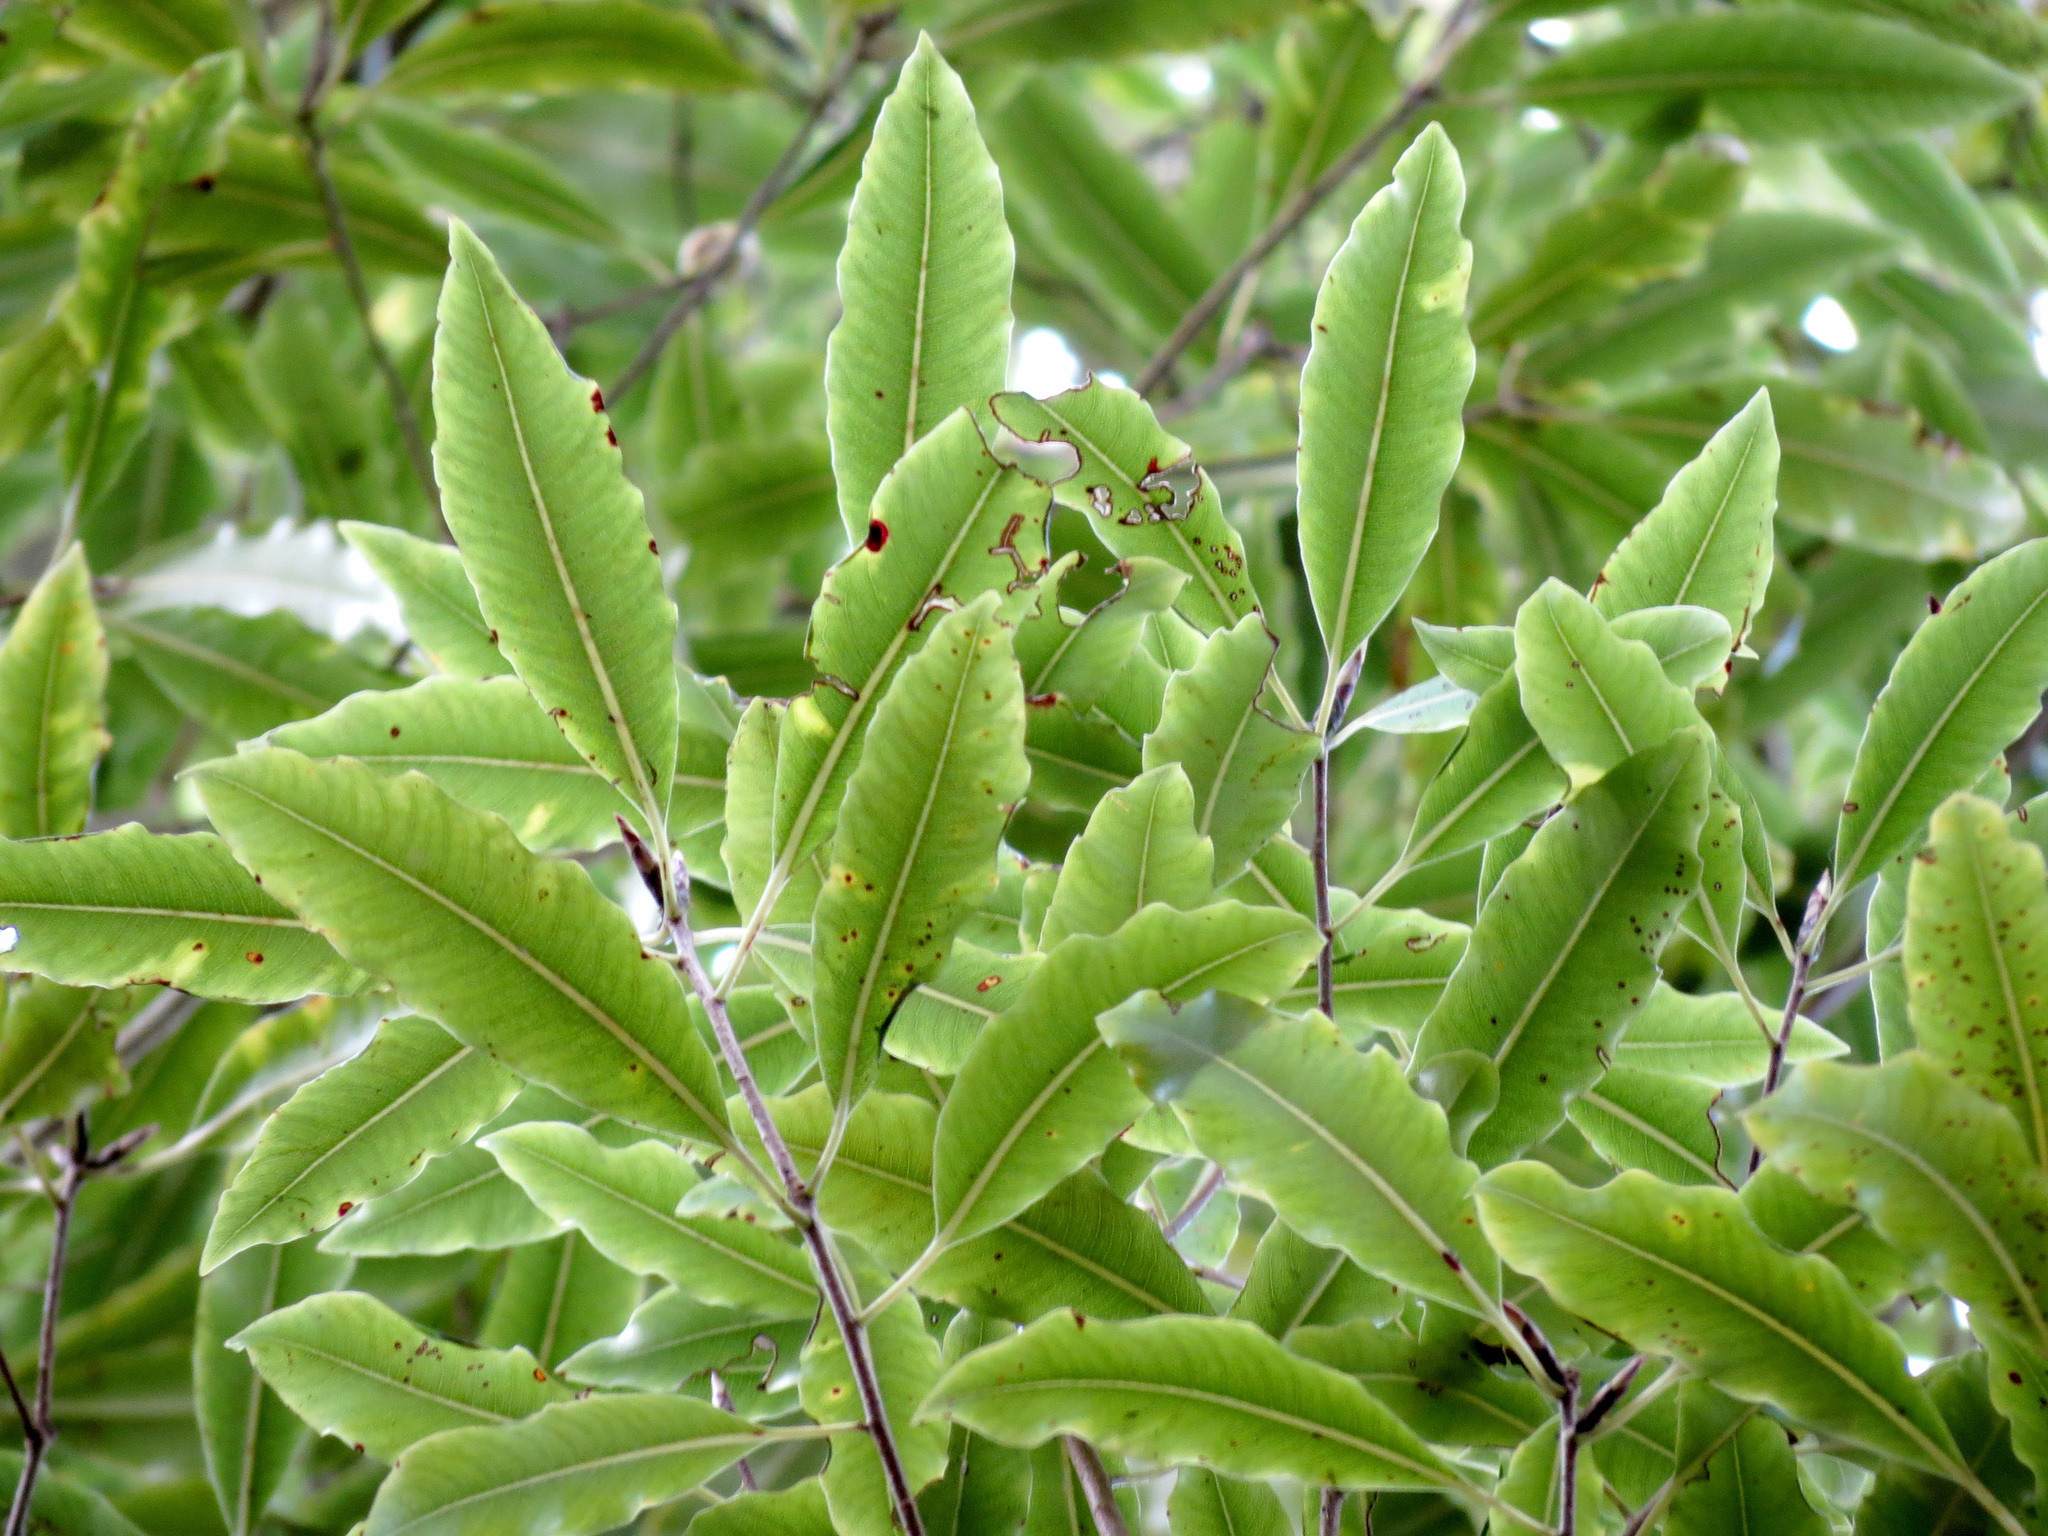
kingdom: Plantae
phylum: Tracheophyta
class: Magnoliopsida
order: Apiales
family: Pittosporaceae
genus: Pittosporum
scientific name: Pittosporum eugenioides
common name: Lemonwood
